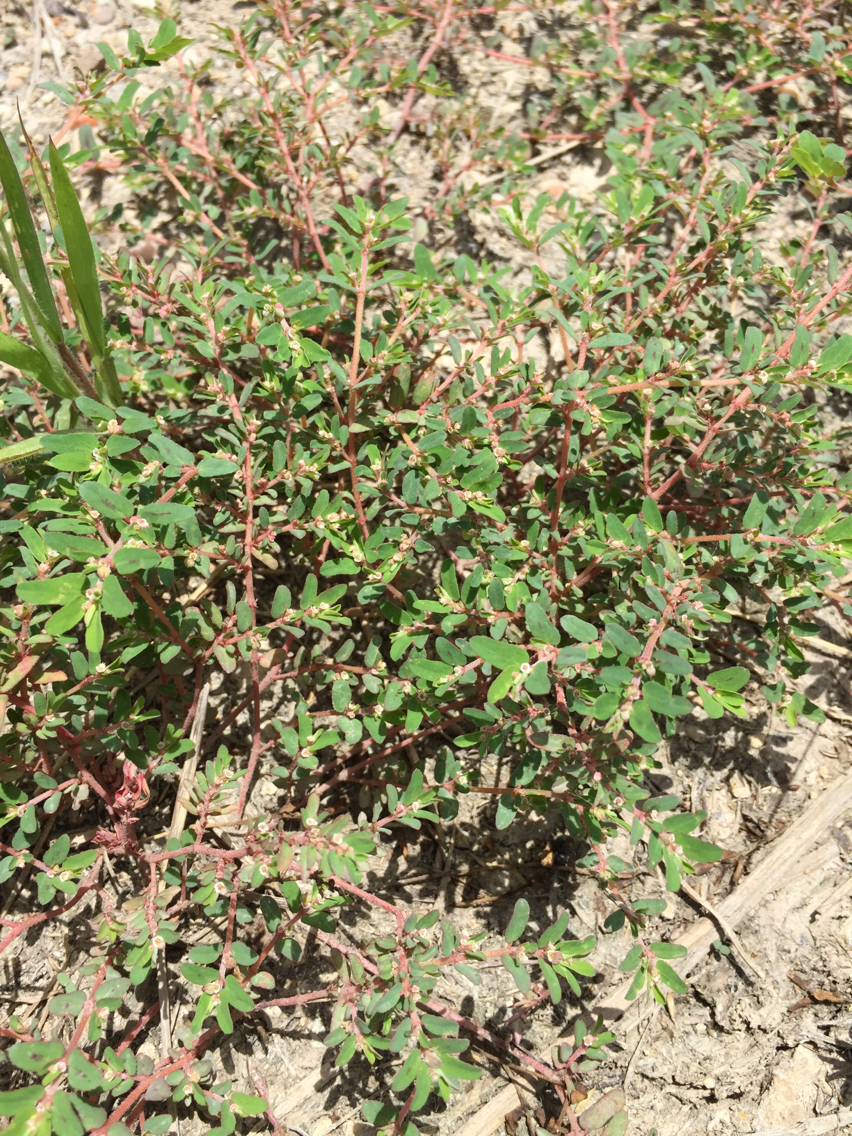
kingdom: Plantae
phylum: Tracheophyta
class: Magnoliopsida
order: Malpighiales
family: Euphorbiaceae
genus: Euphorbia
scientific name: Euphorbia maculata
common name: Spotted spurge
